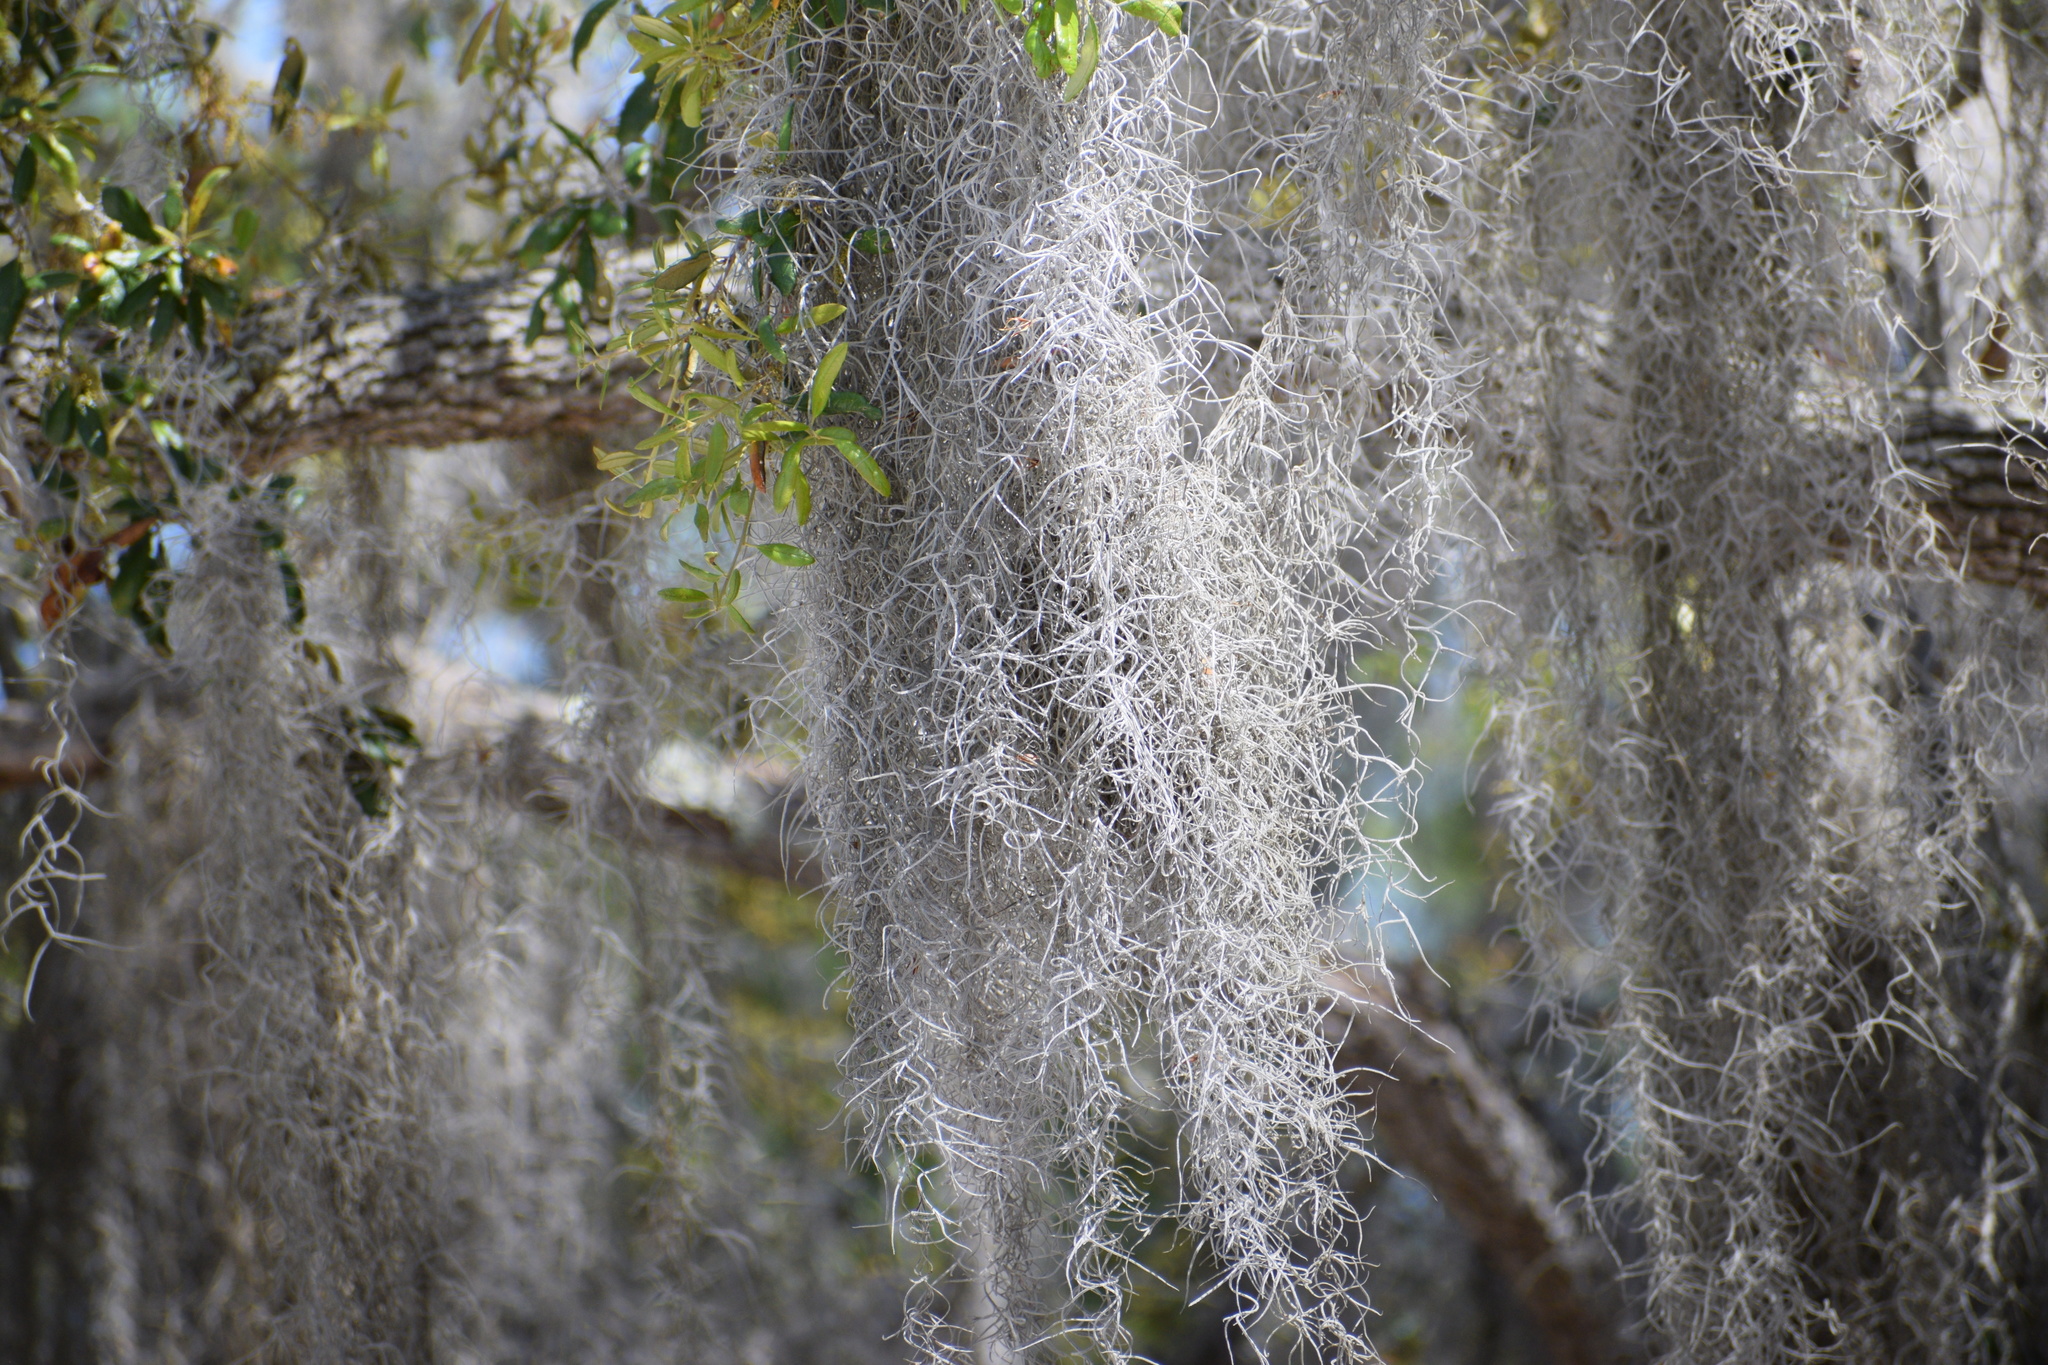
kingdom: Plantae
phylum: Tracheophyta
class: Liliopsida
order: Poales
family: Bromeliaceae
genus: Tillandsia
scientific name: Tillandsia usneoides
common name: Spanish moss
